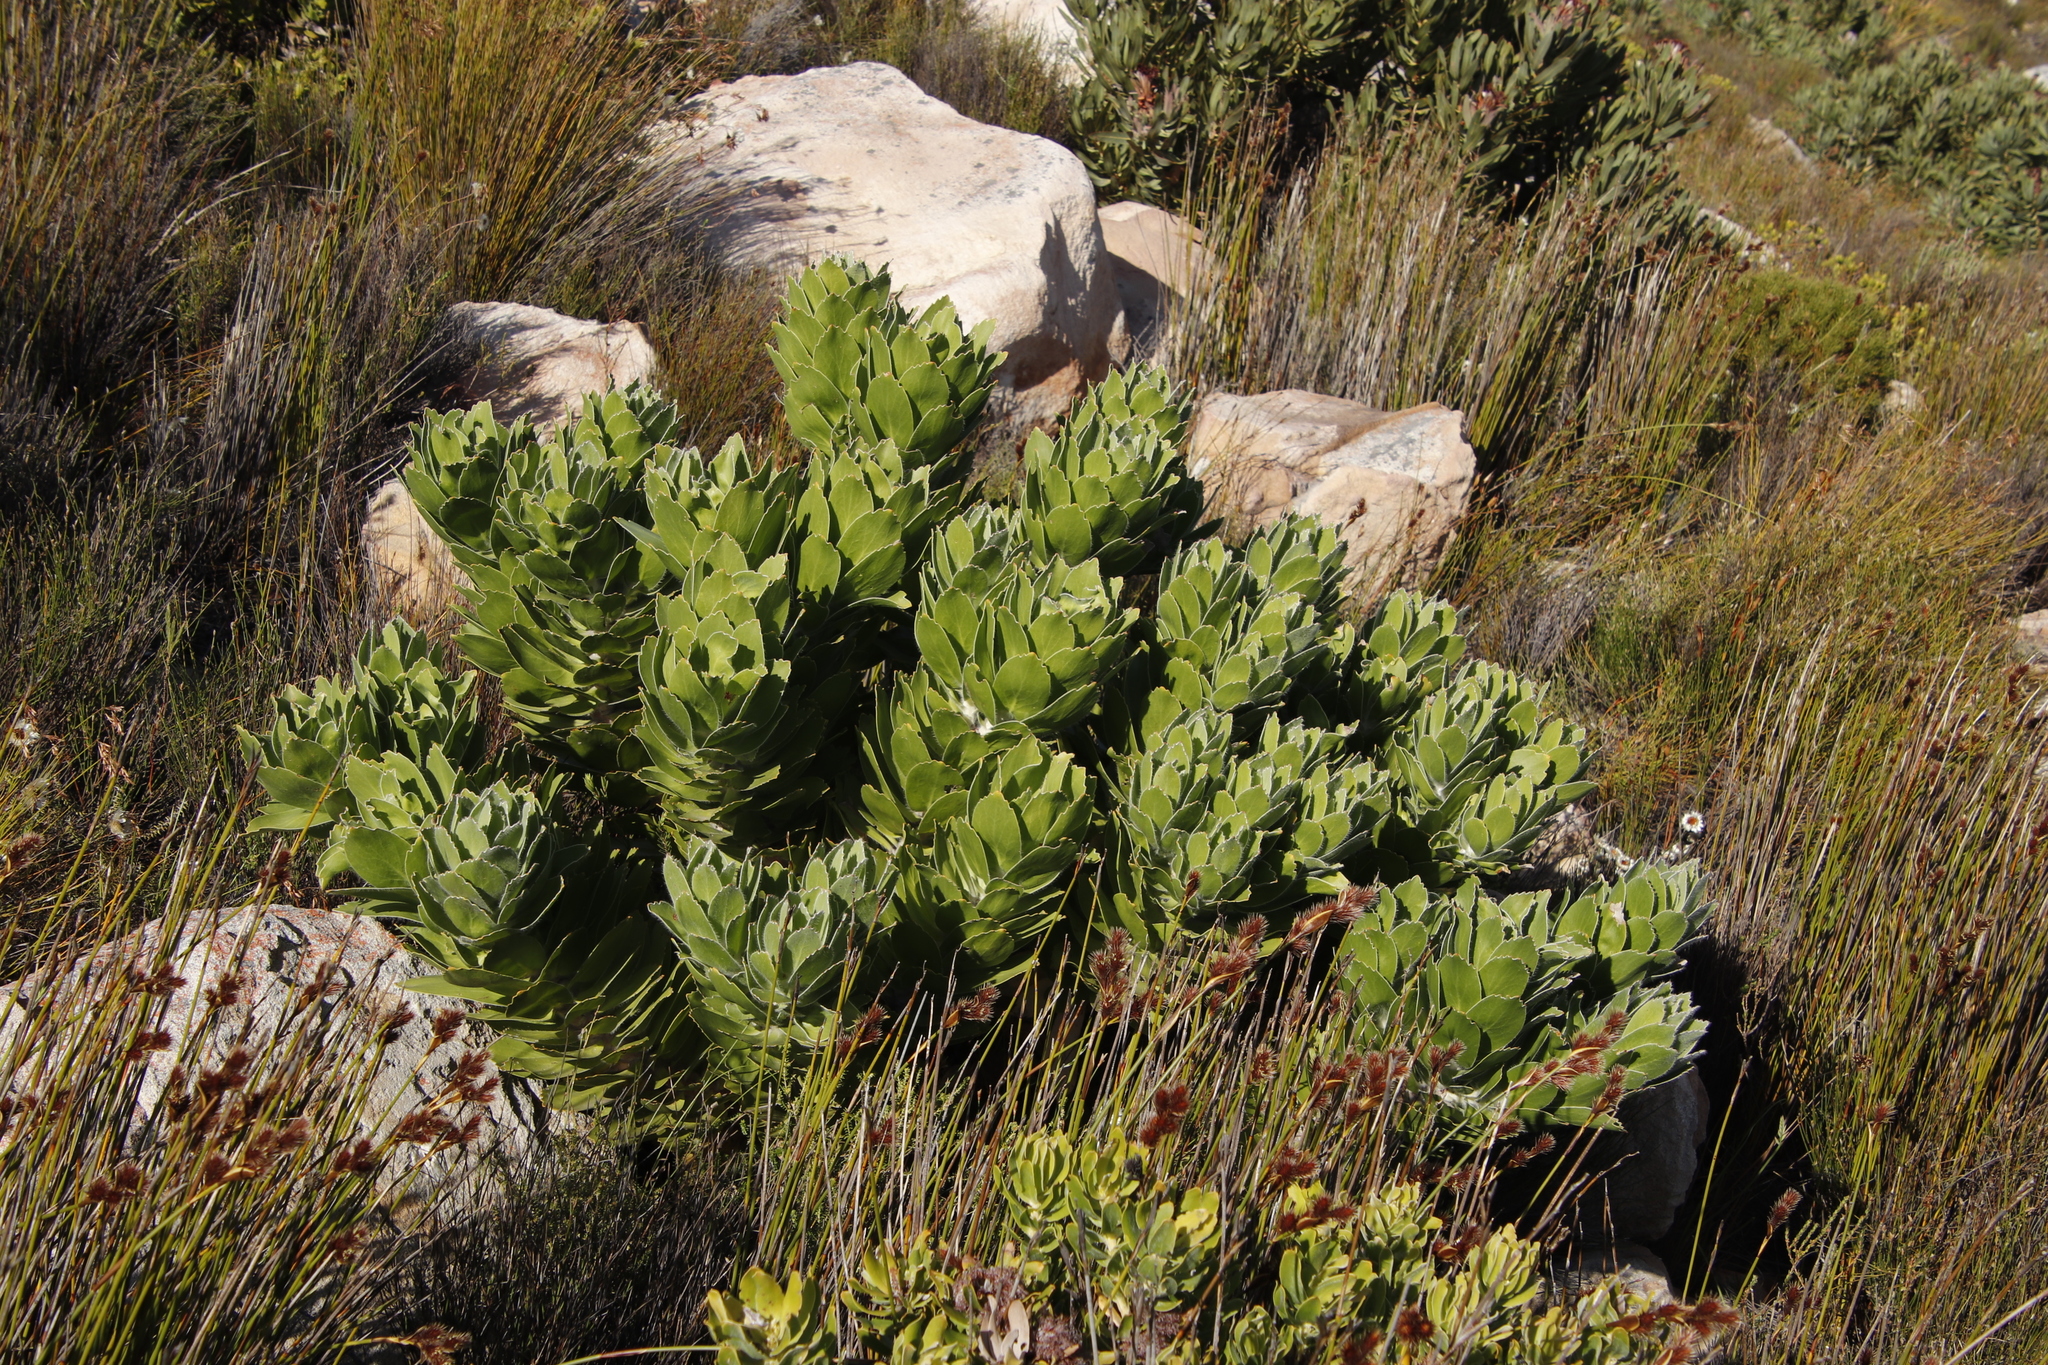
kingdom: Plantae
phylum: Tracheophyta
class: Magnoliopsida
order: Proteales
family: Proteaceae
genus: Leucospermum
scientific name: Leucospermum conocarpodendron
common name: Tree pincushion
